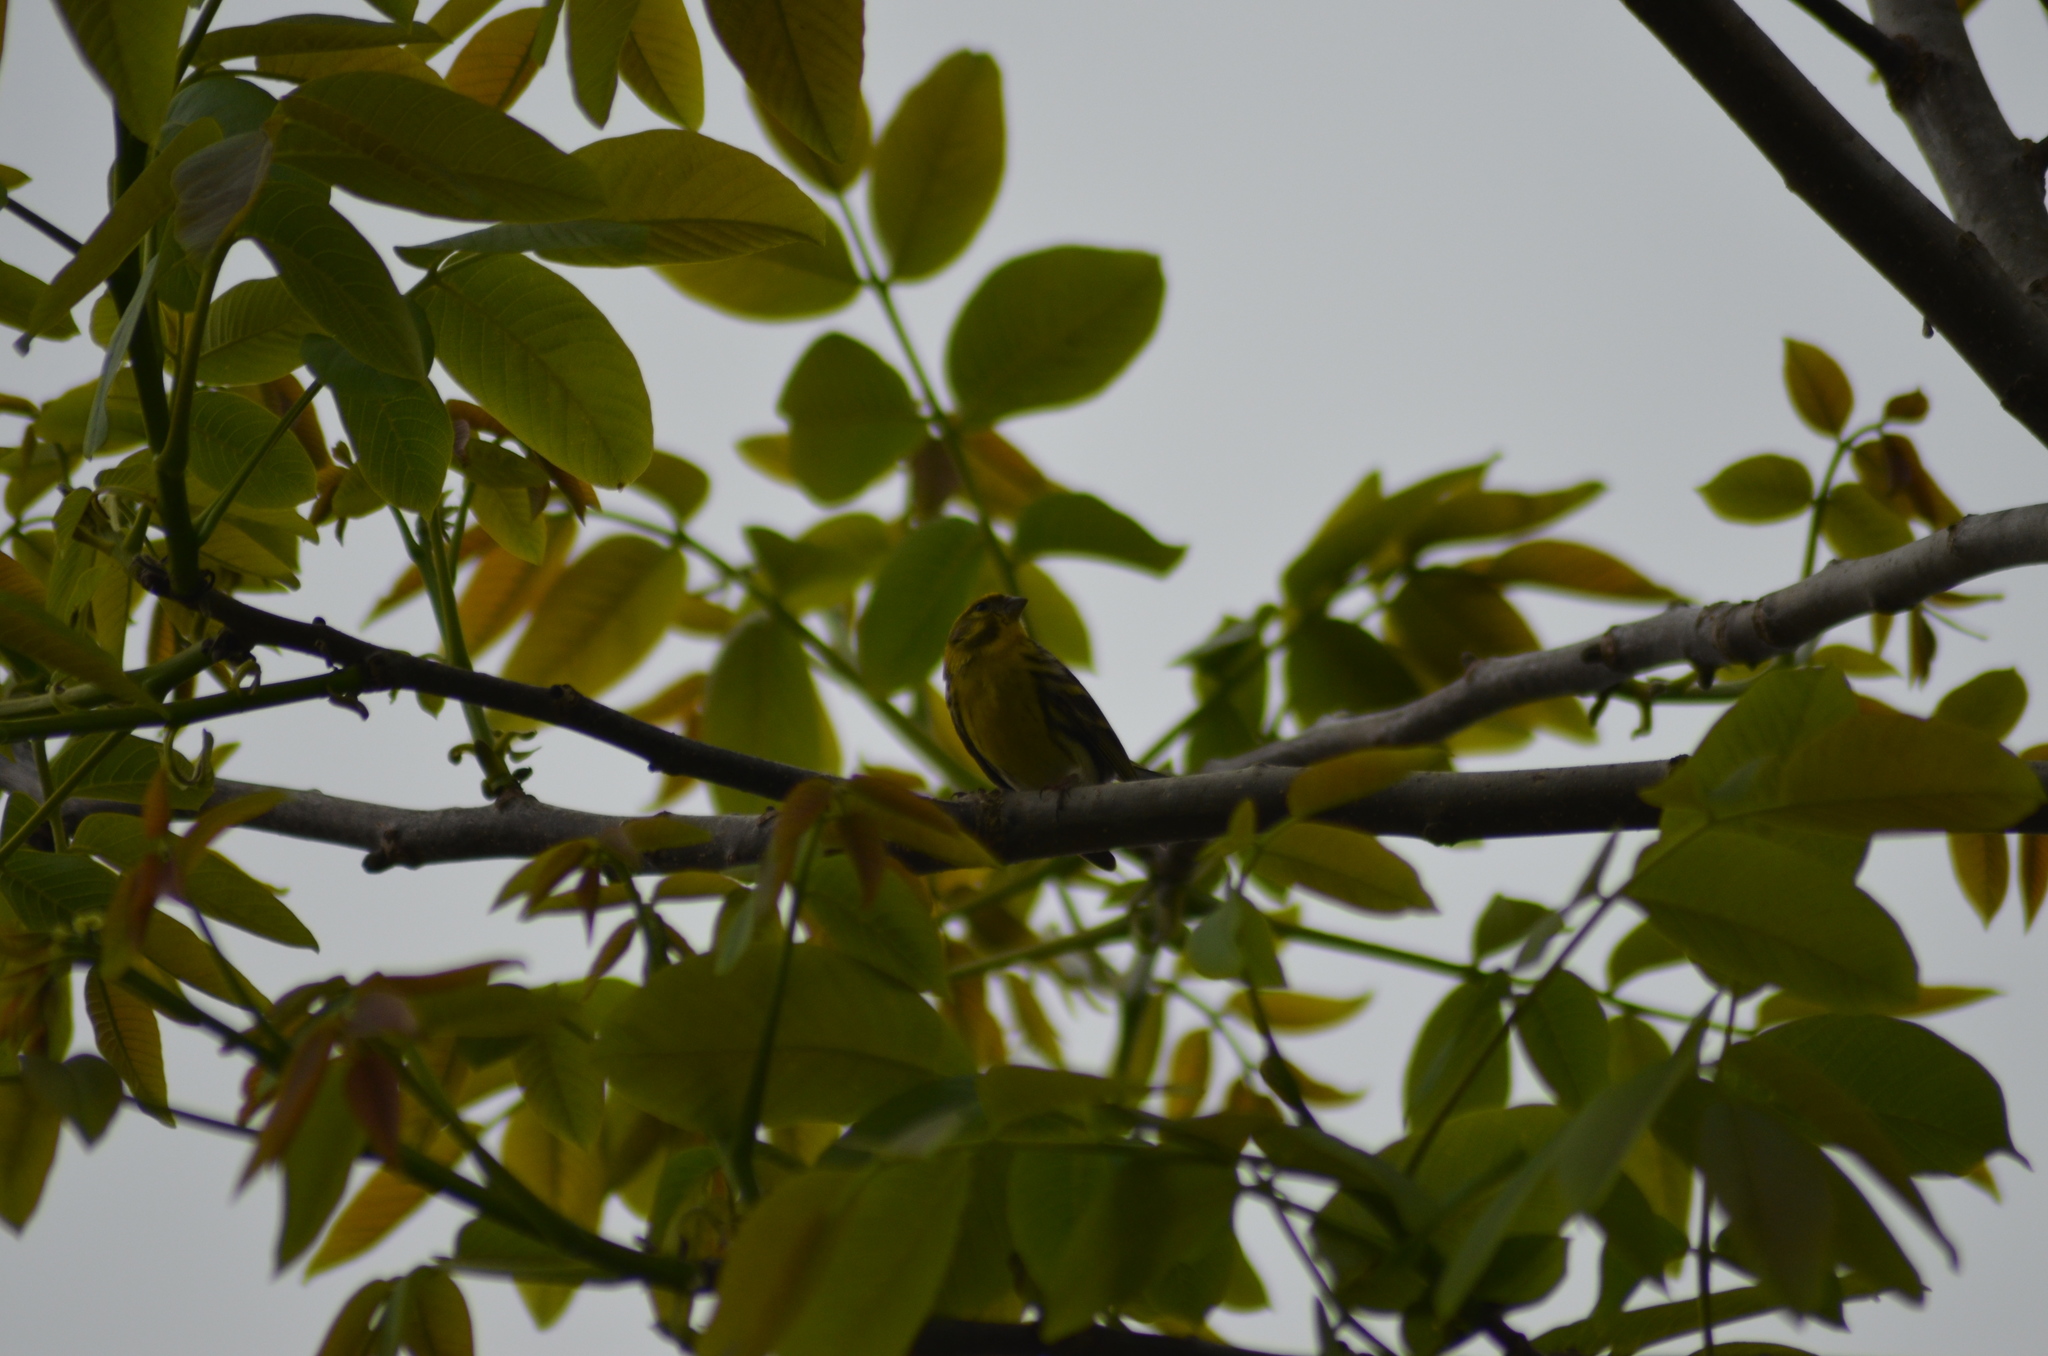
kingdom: Animalia
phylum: Chordata
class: Aves
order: Passeriformes
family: Fringillidae
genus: Serinus
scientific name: Serinus serinus
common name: European serin
